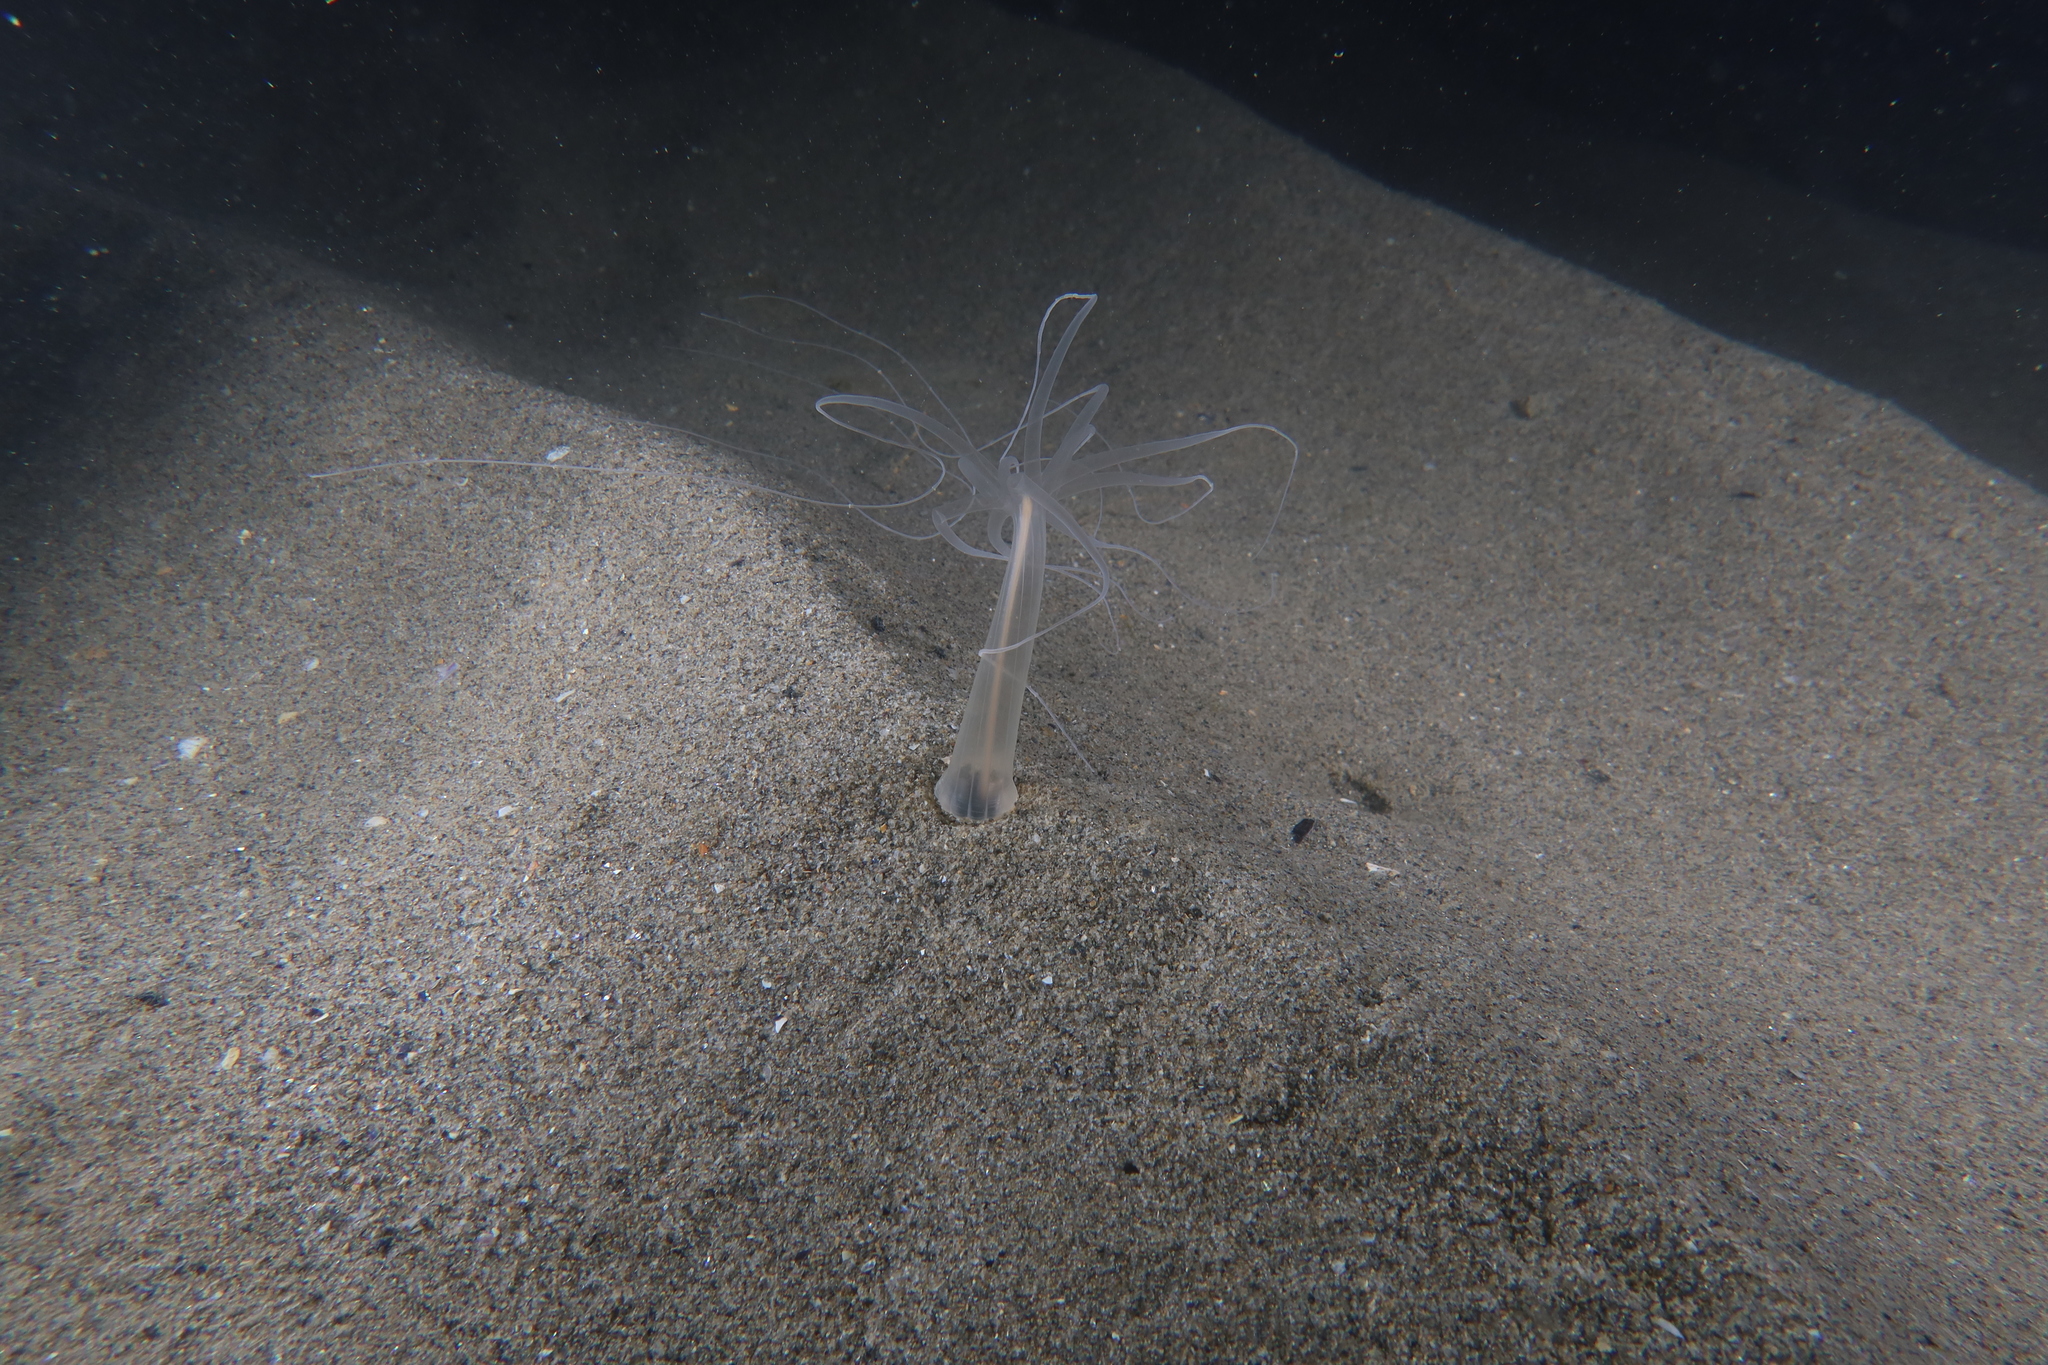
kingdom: Animalia
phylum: Cnidaria
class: Anthozoa
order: Actiniaria
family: Halcampoididae
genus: Halcampoides
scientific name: Halcampoides purpureus
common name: Purple anemone
